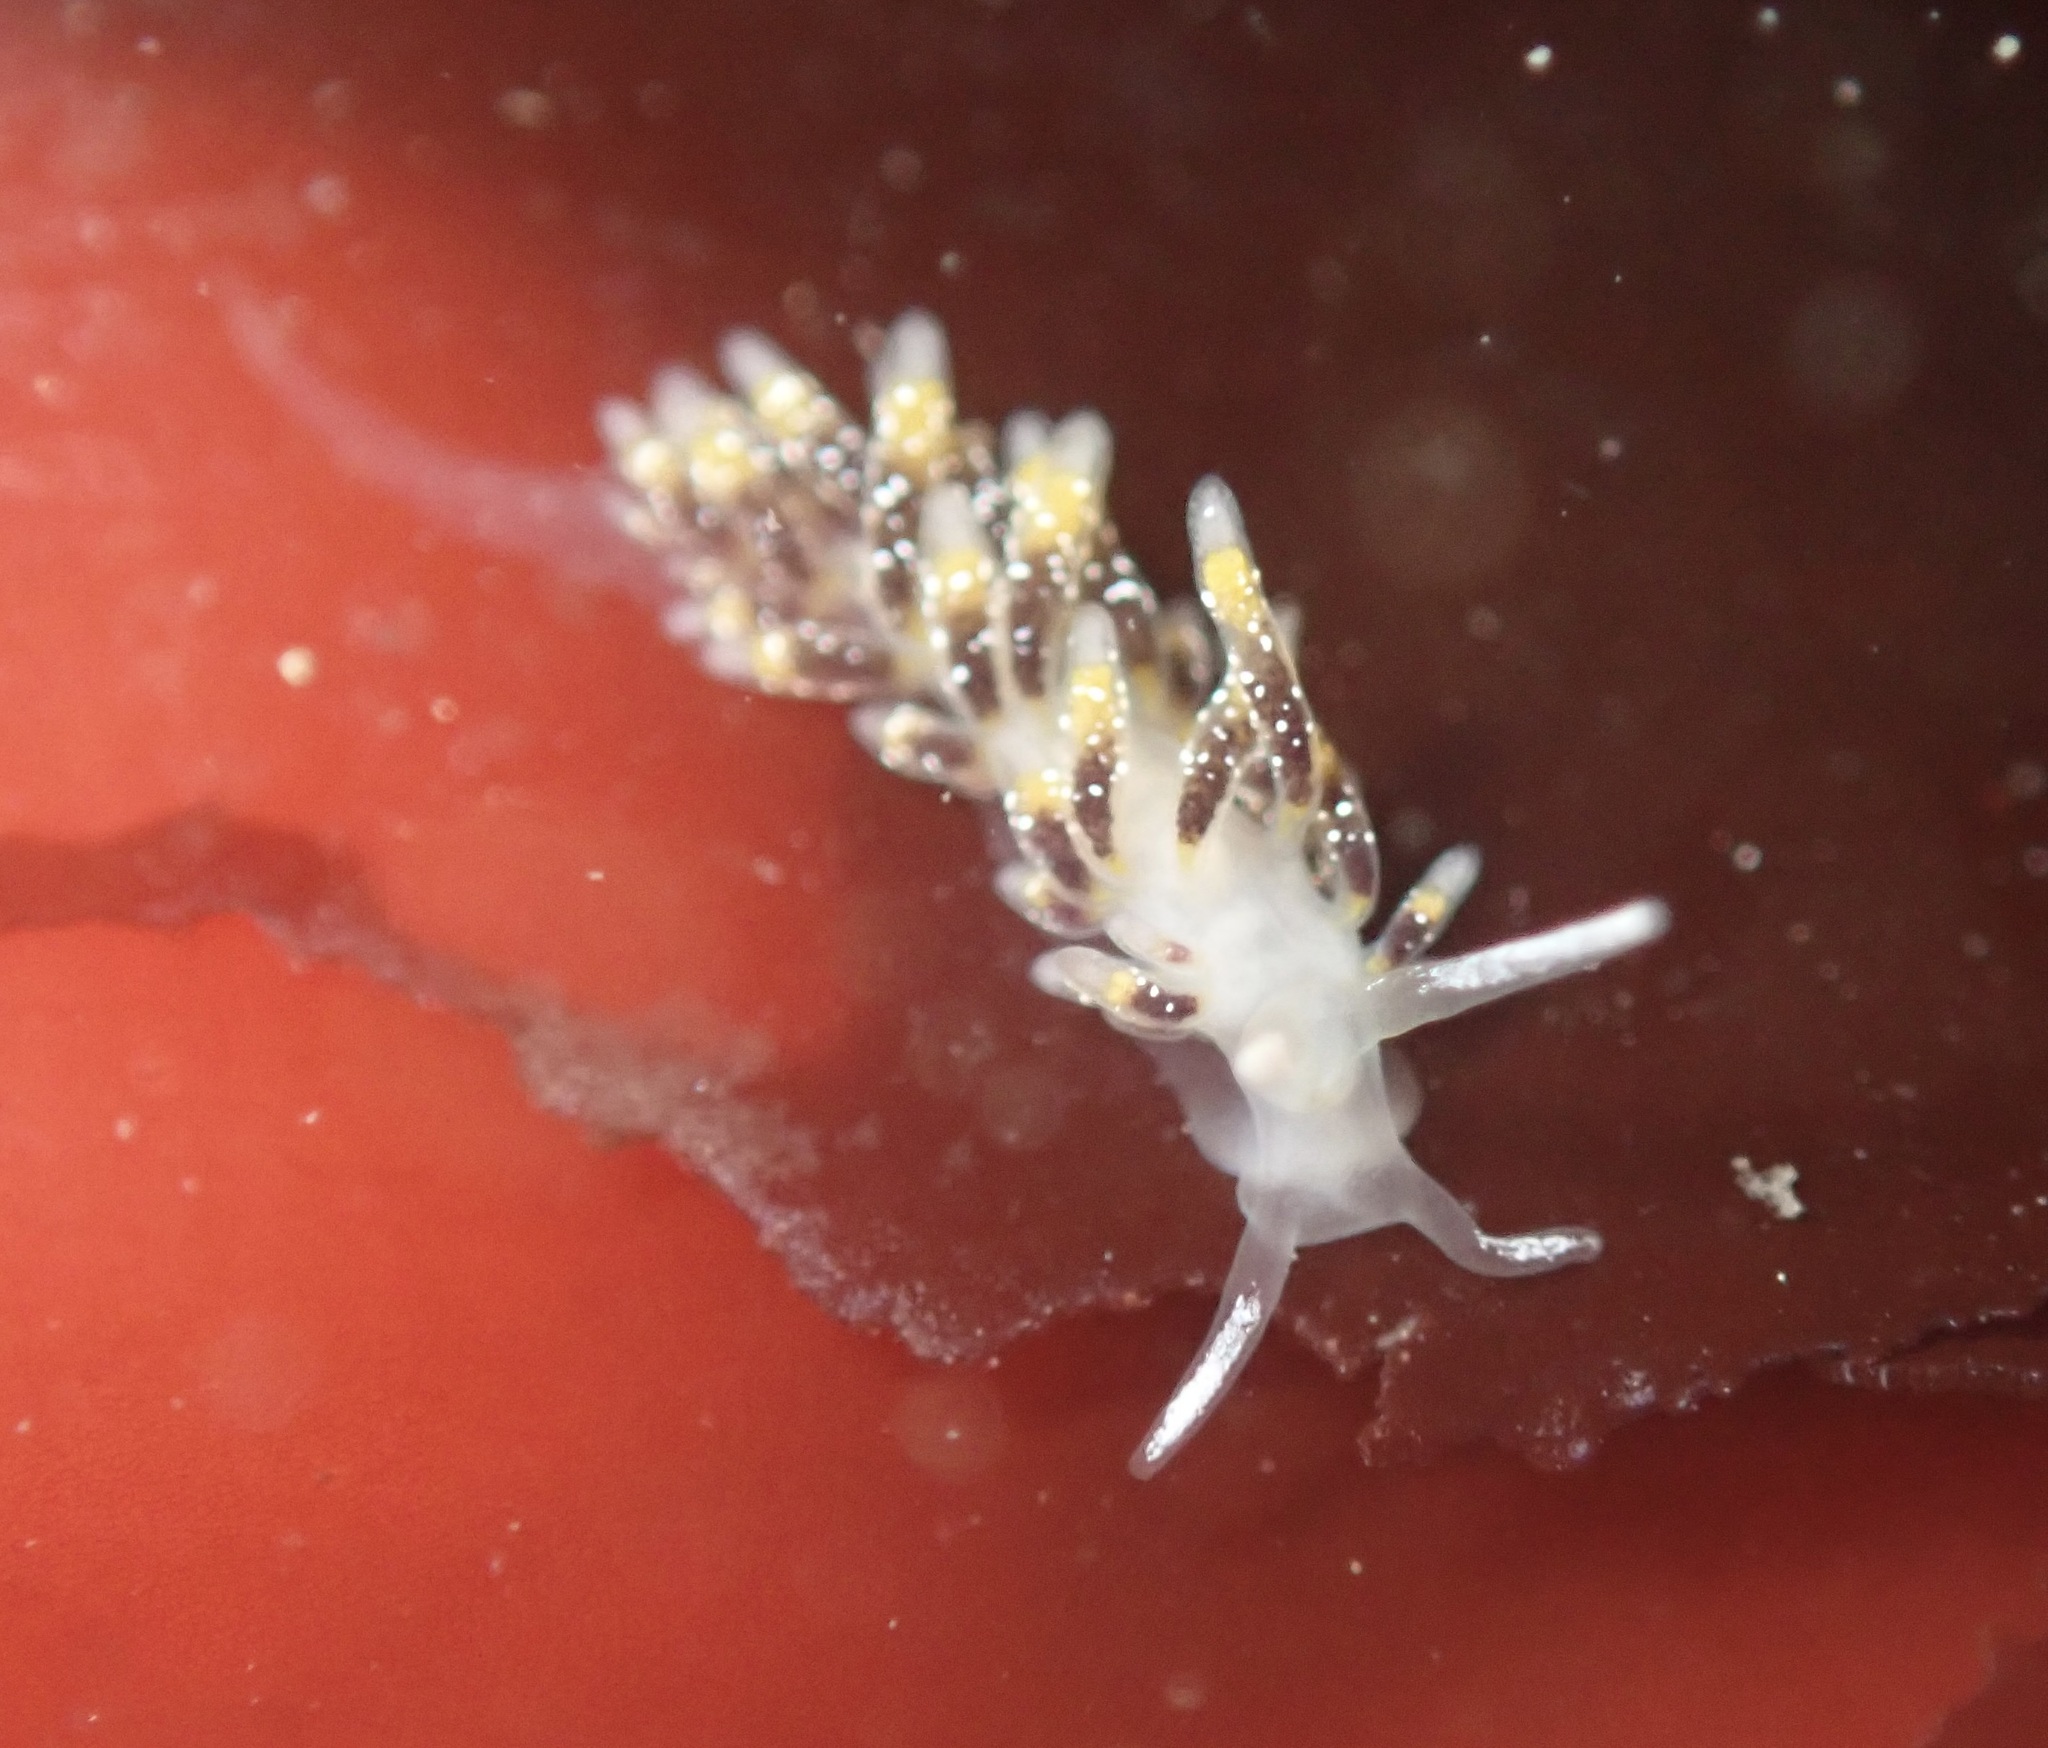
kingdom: Animalia
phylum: Mollusca
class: Gastropoda
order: Nudibranchia
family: Trinchesiidae
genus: Zelentia
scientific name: Zelentia fulgens
